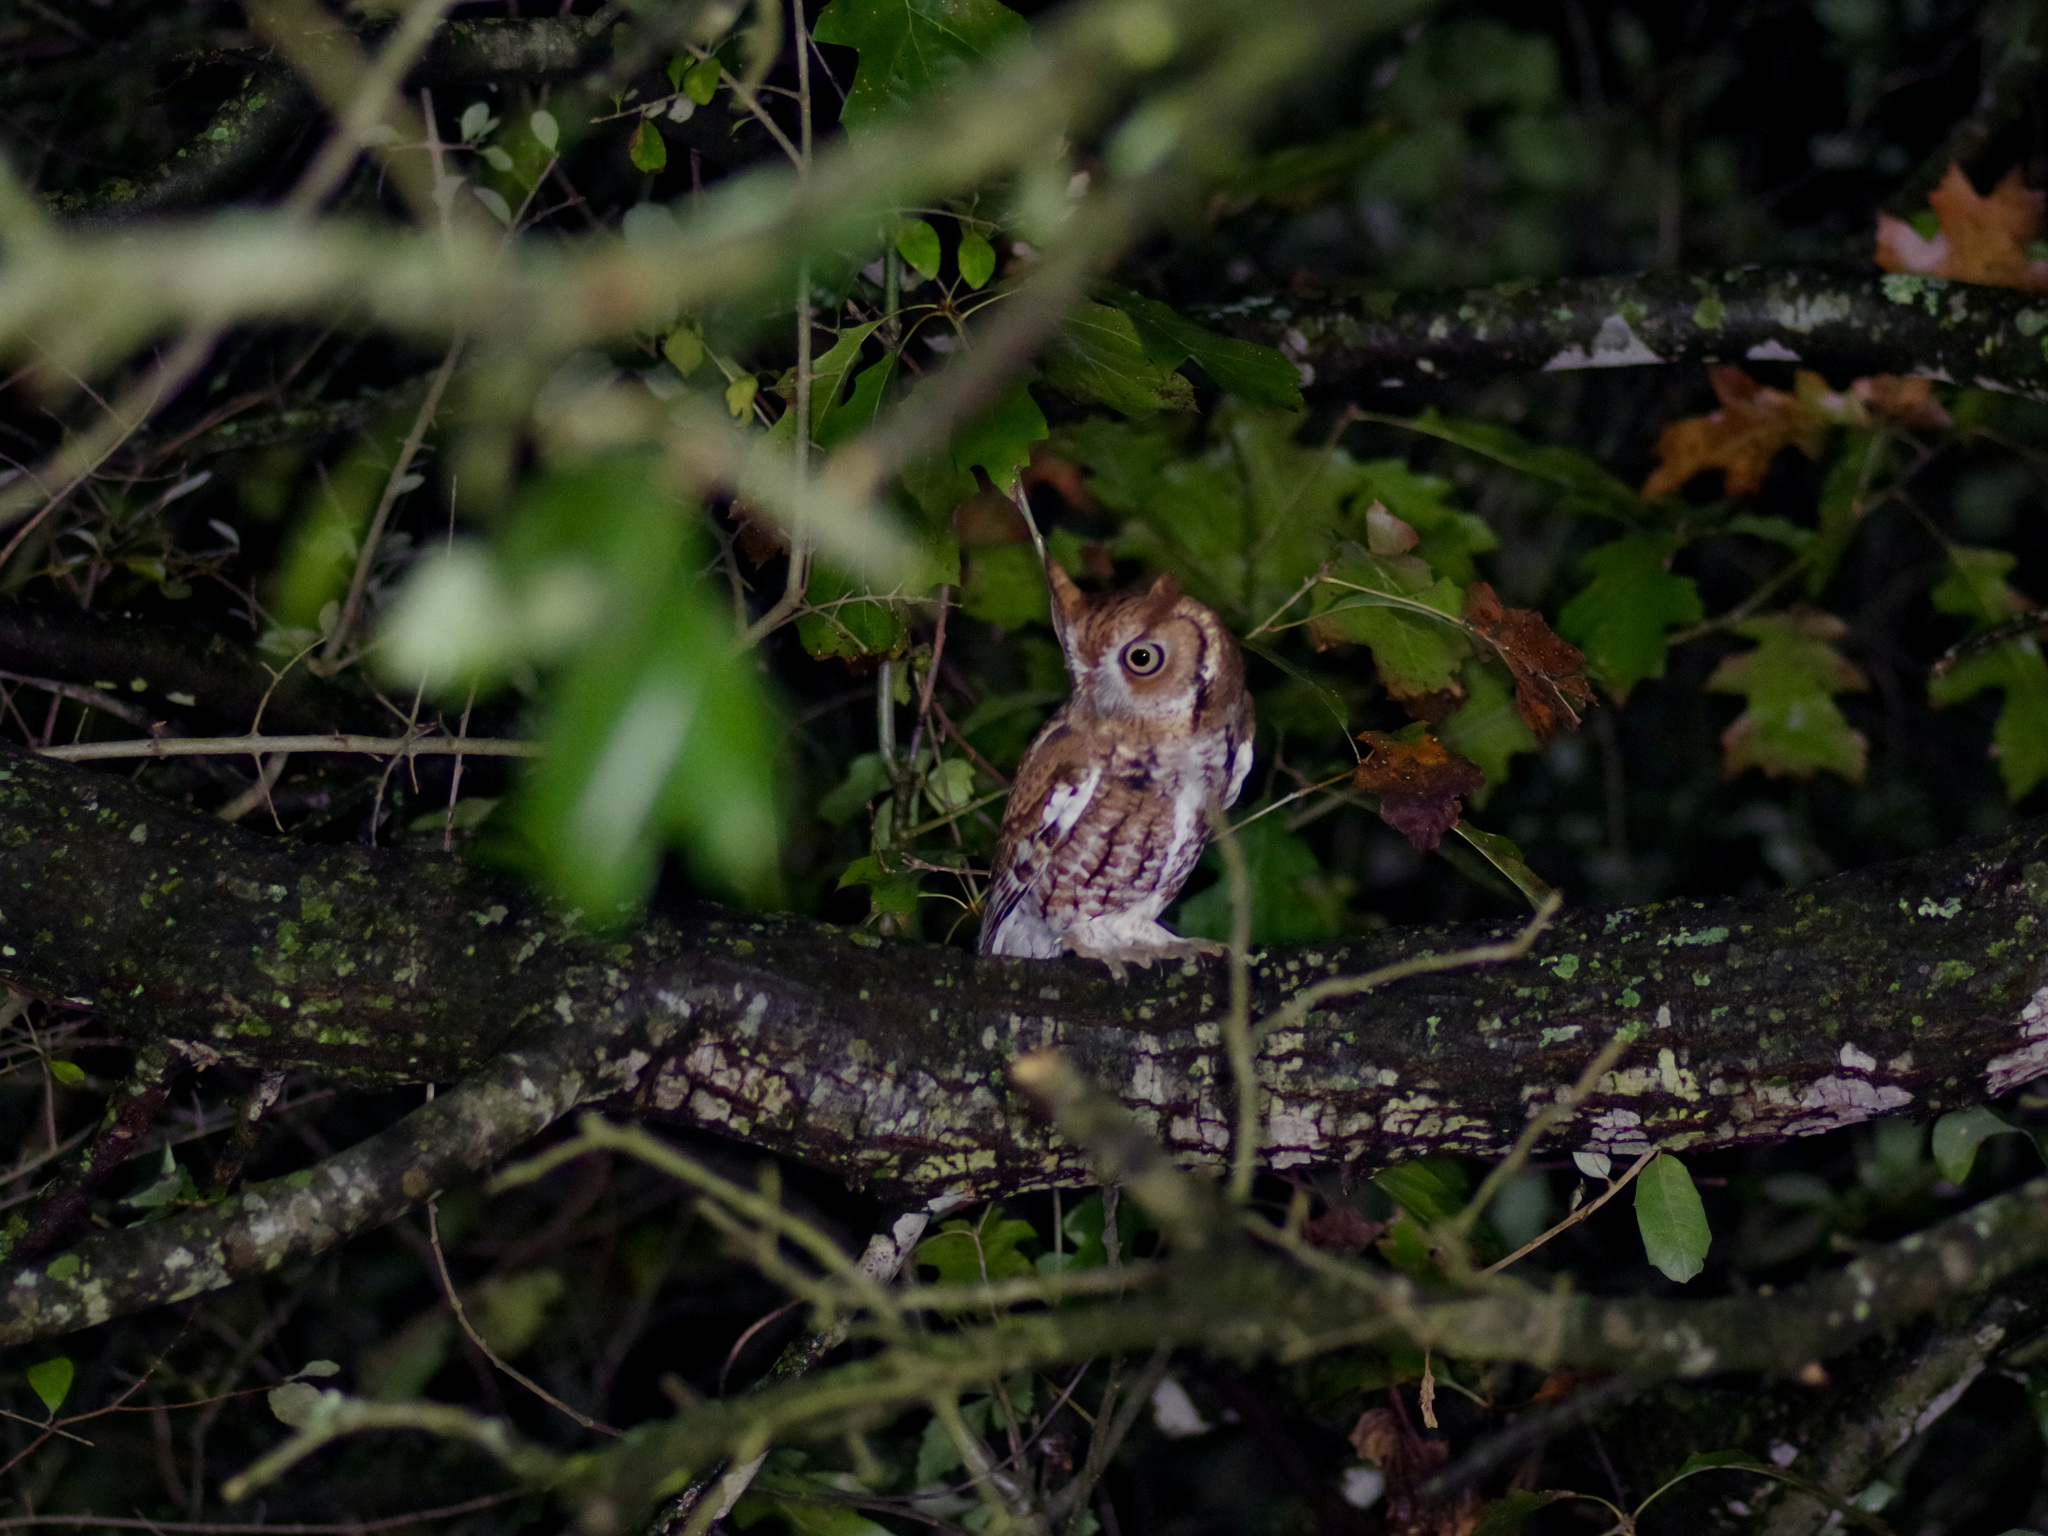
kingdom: Animalia
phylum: Chordata
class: Aves
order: Strigiformes
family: Strigidae
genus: Megascops
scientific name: Megascops asio
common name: Eastern screech-owl
